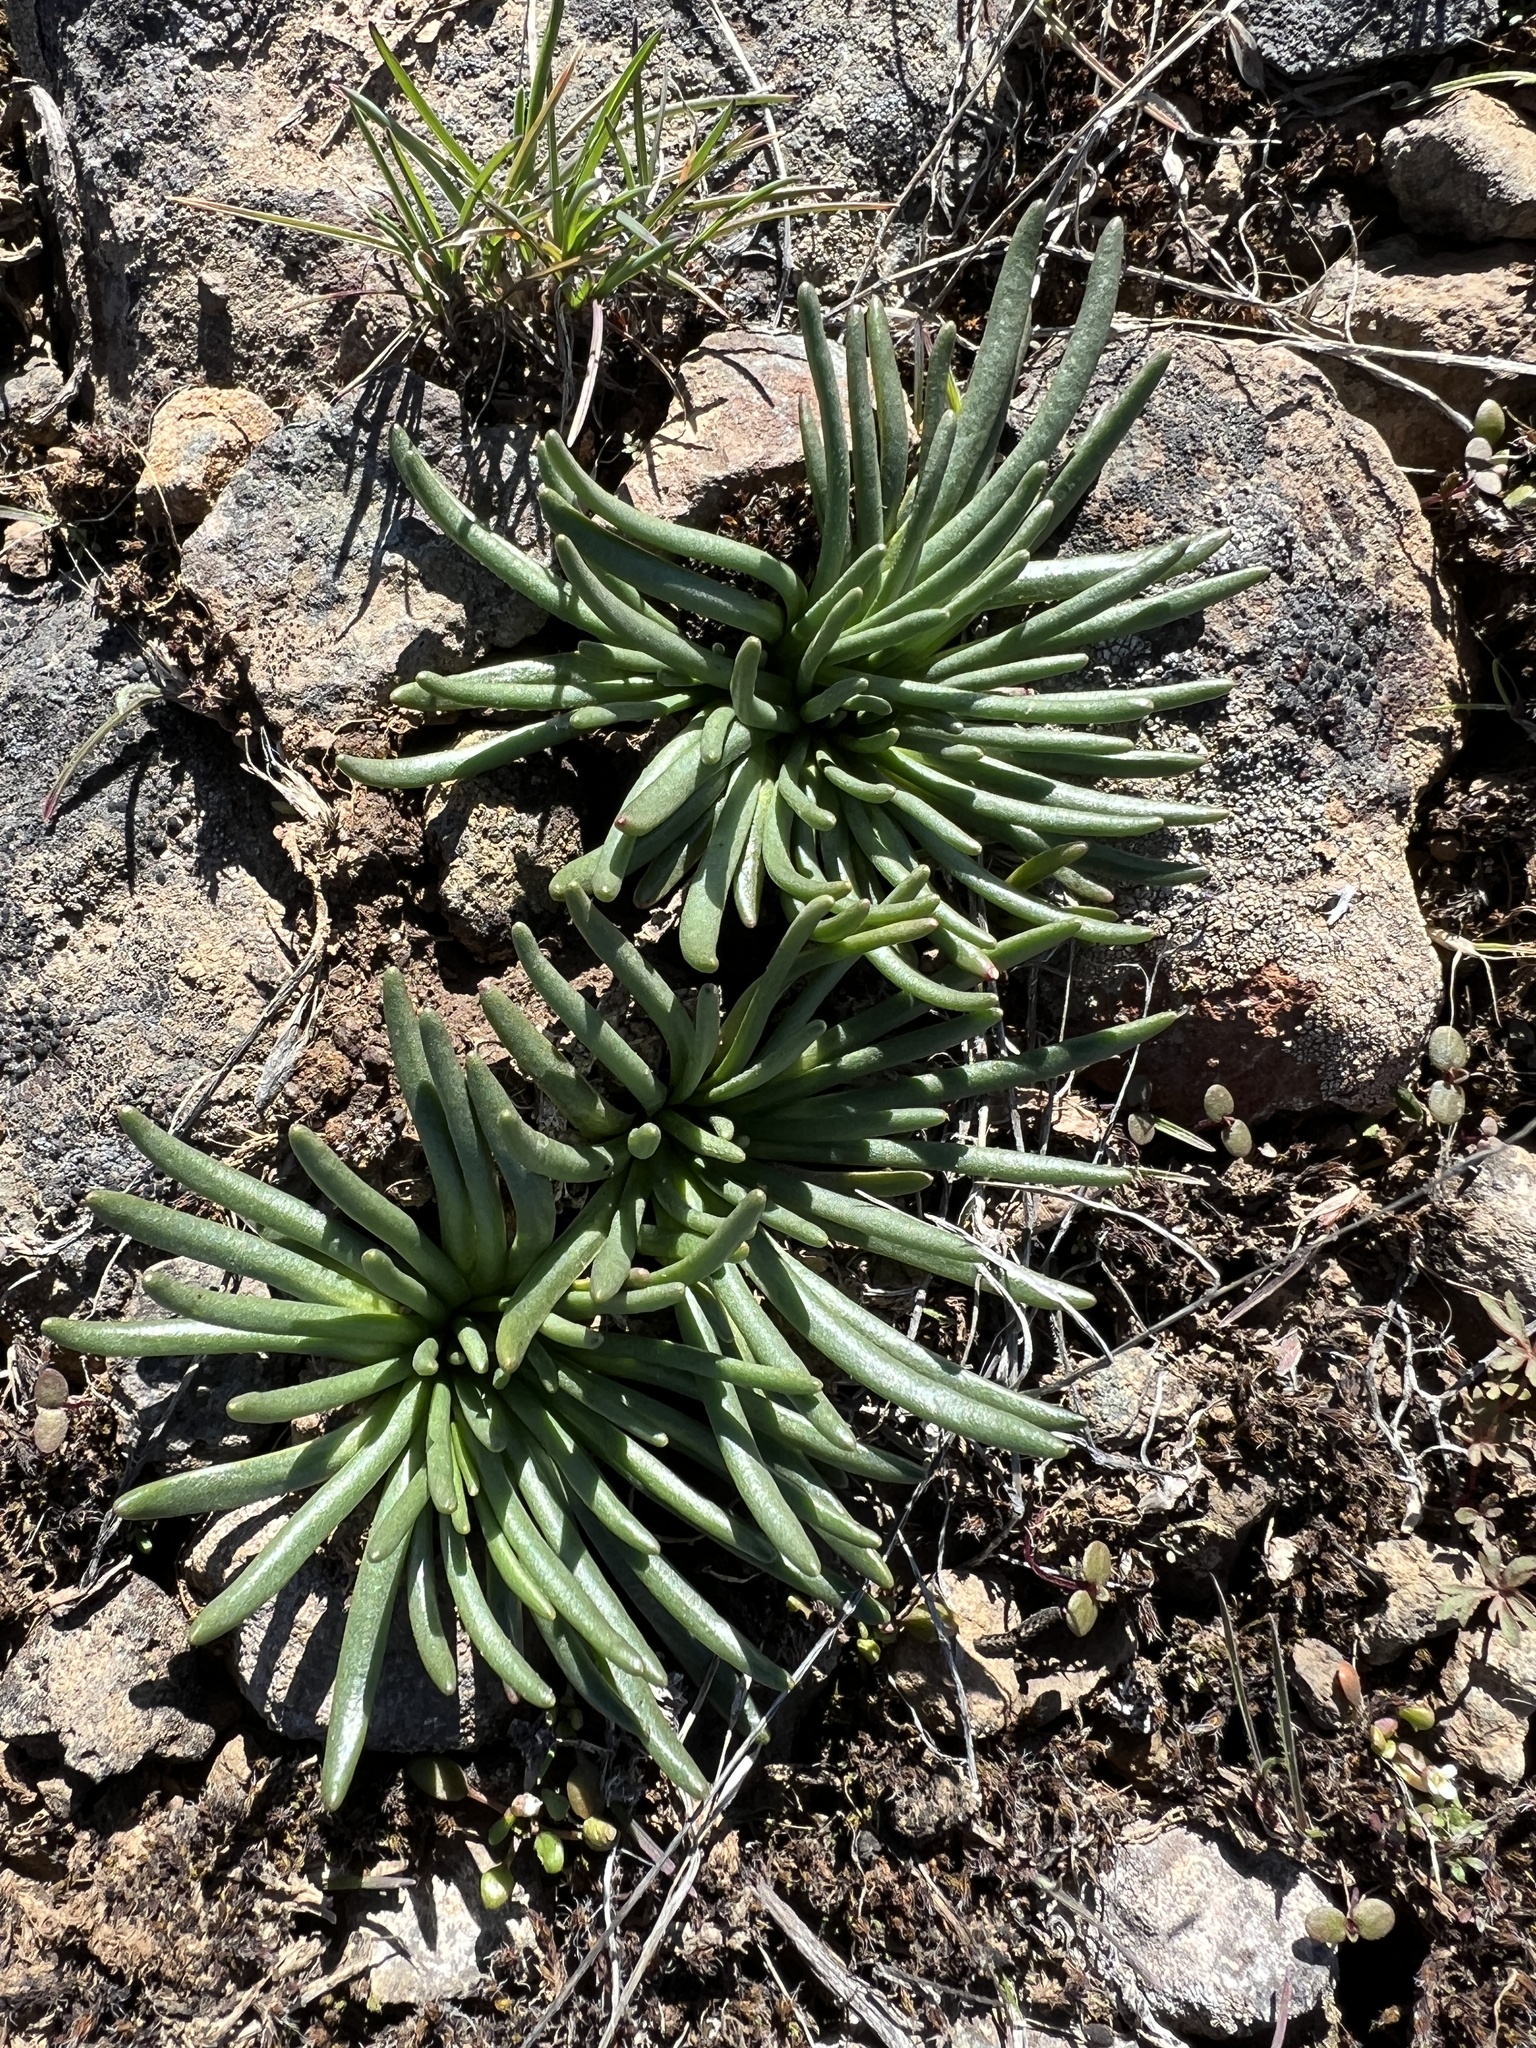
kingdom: Plantae
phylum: Tracheophyta
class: Magnoliopsida
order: Caryophyllales
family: Montiaceae
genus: Lewisia
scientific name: Lewisia rediviva
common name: Bitter-root
